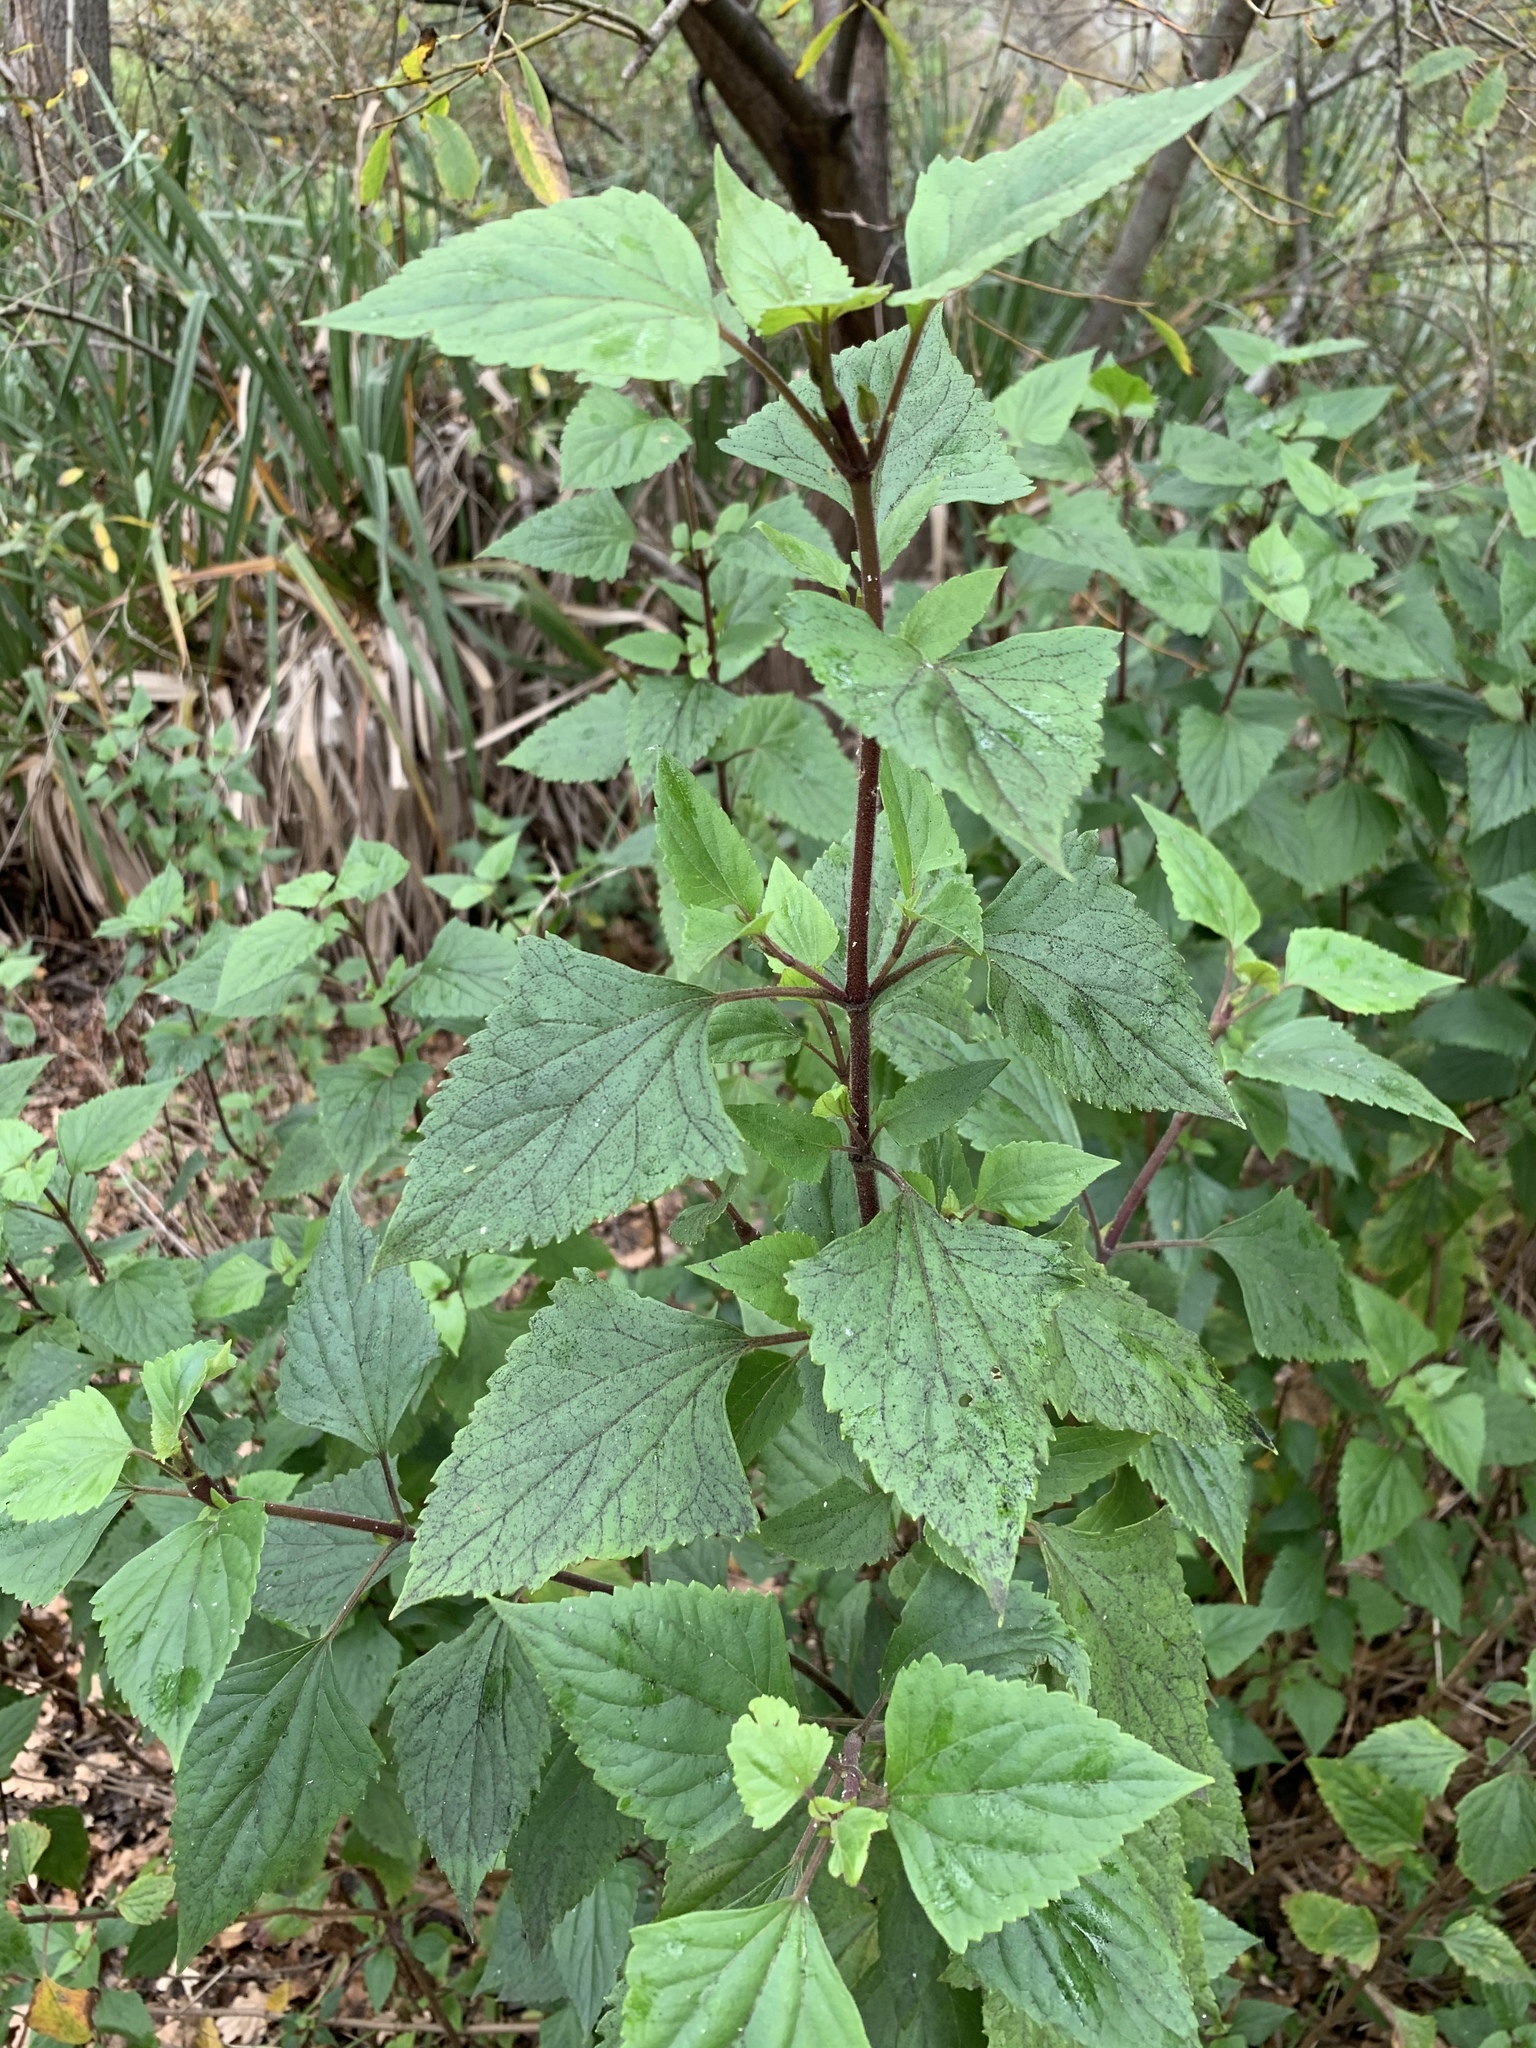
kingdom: Plantae
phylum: Tracheophyta
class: Magnoliopsida
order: Asterales
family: Asteraceae
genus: Ageratina
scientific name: Ageratina adenophora
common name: Sticky snakeroot
